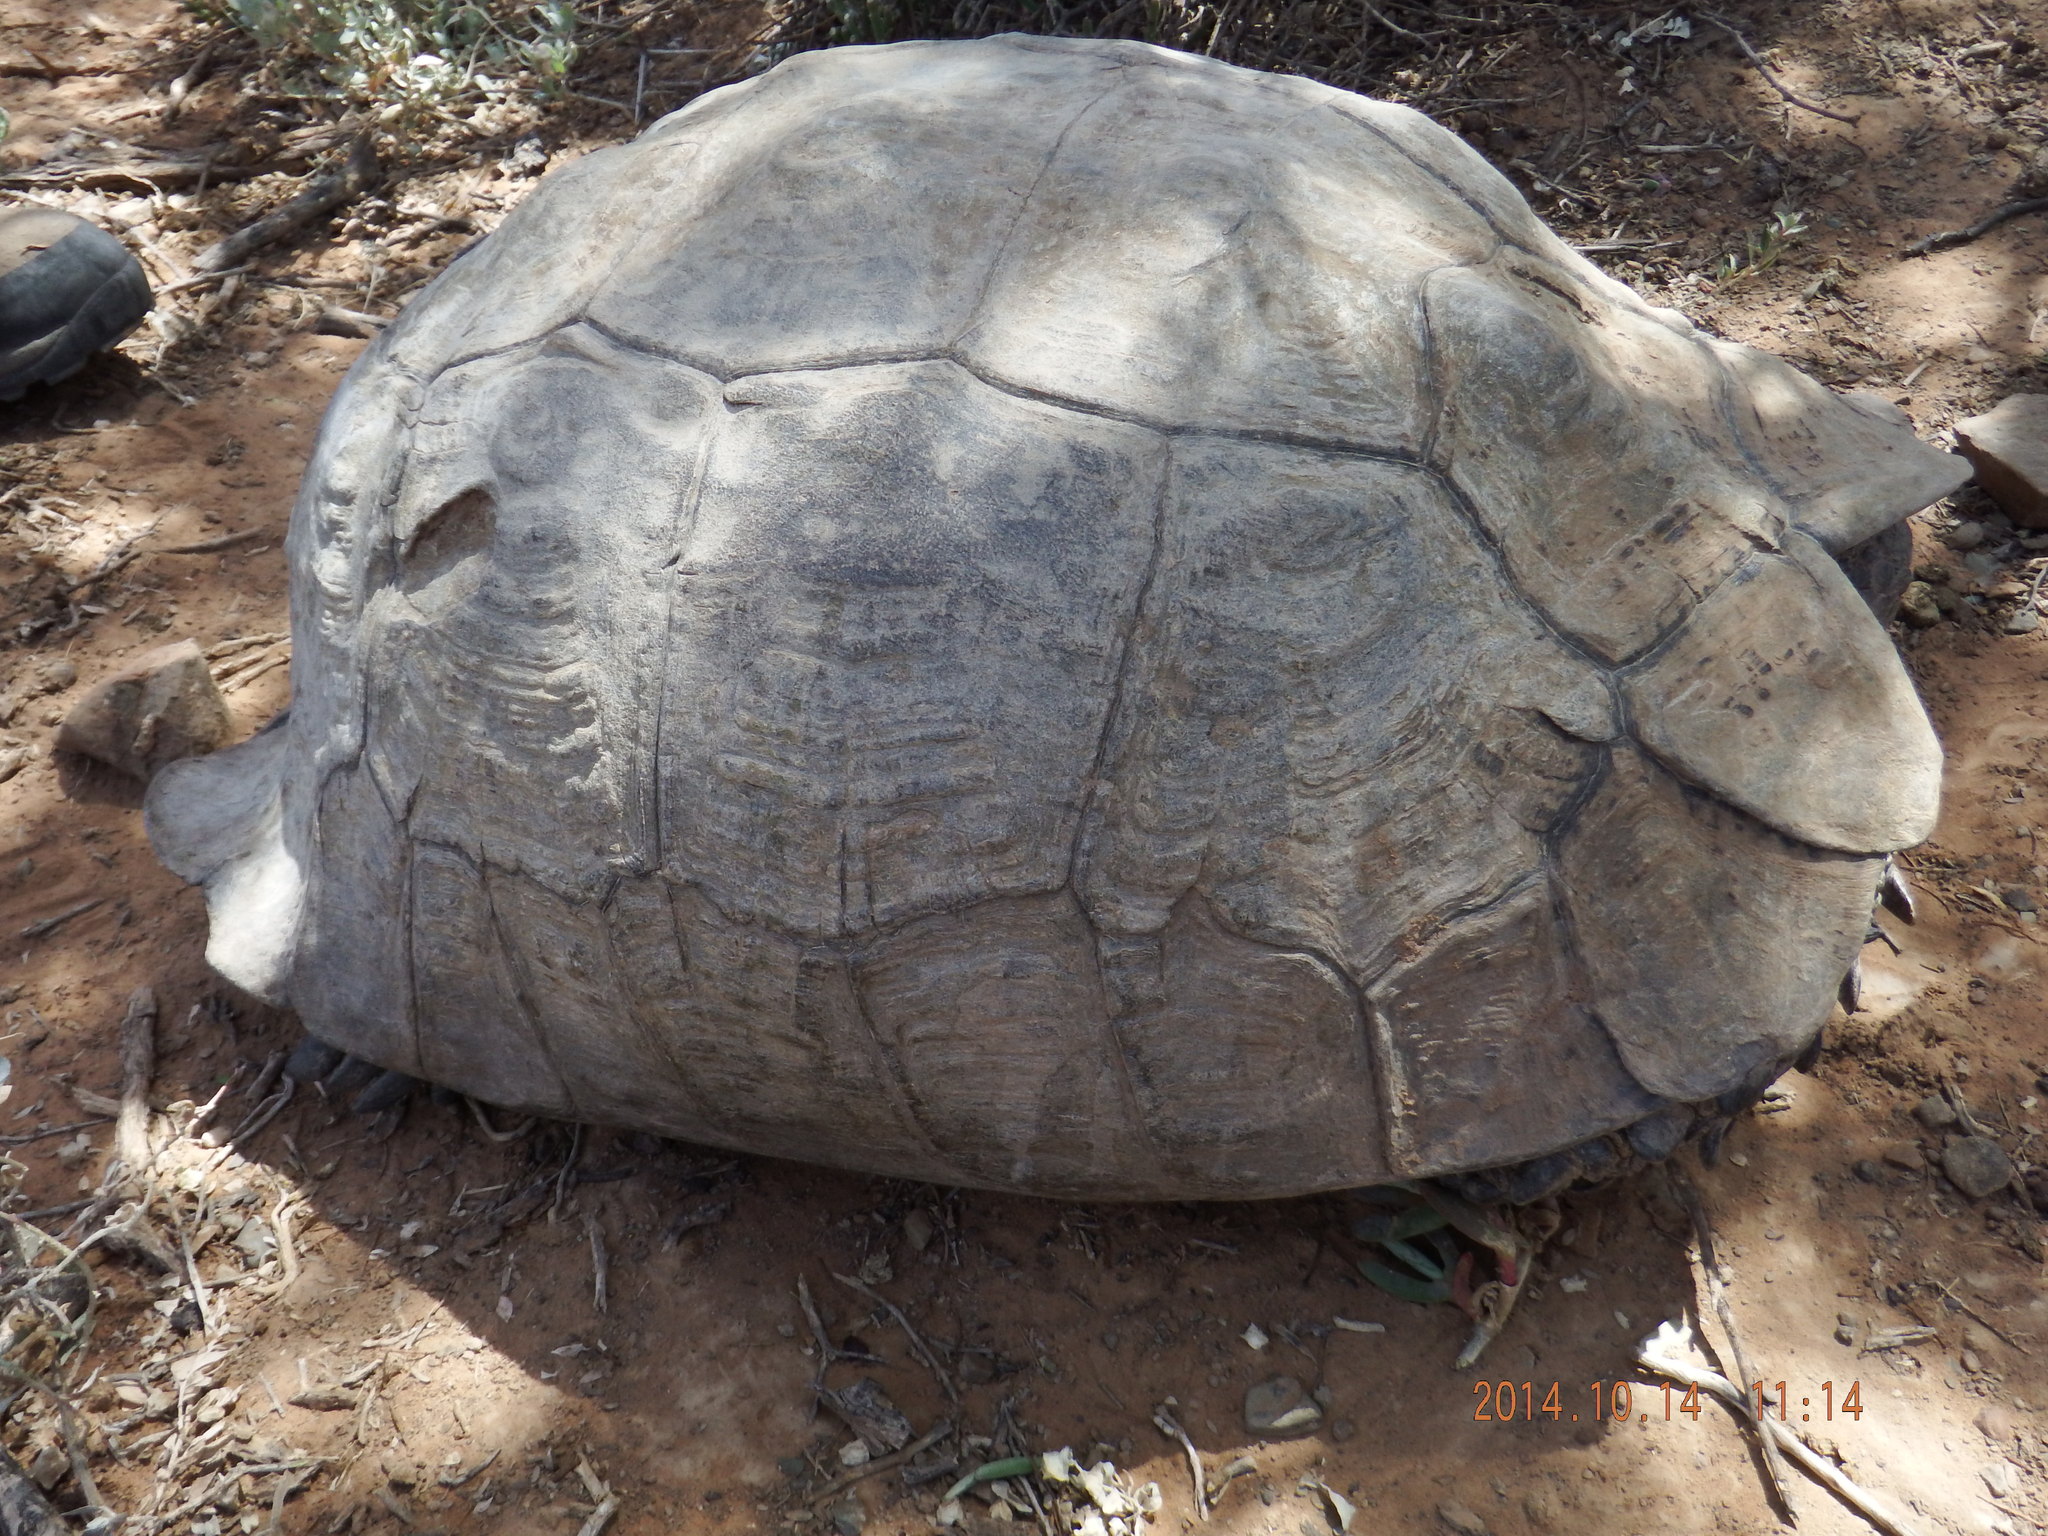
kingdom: Animalia
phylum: Chordata
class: Testudines
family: Testudinidae
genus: Stigmochelys
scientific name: Stigmochelys pardalis
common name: Leopard tortoise
